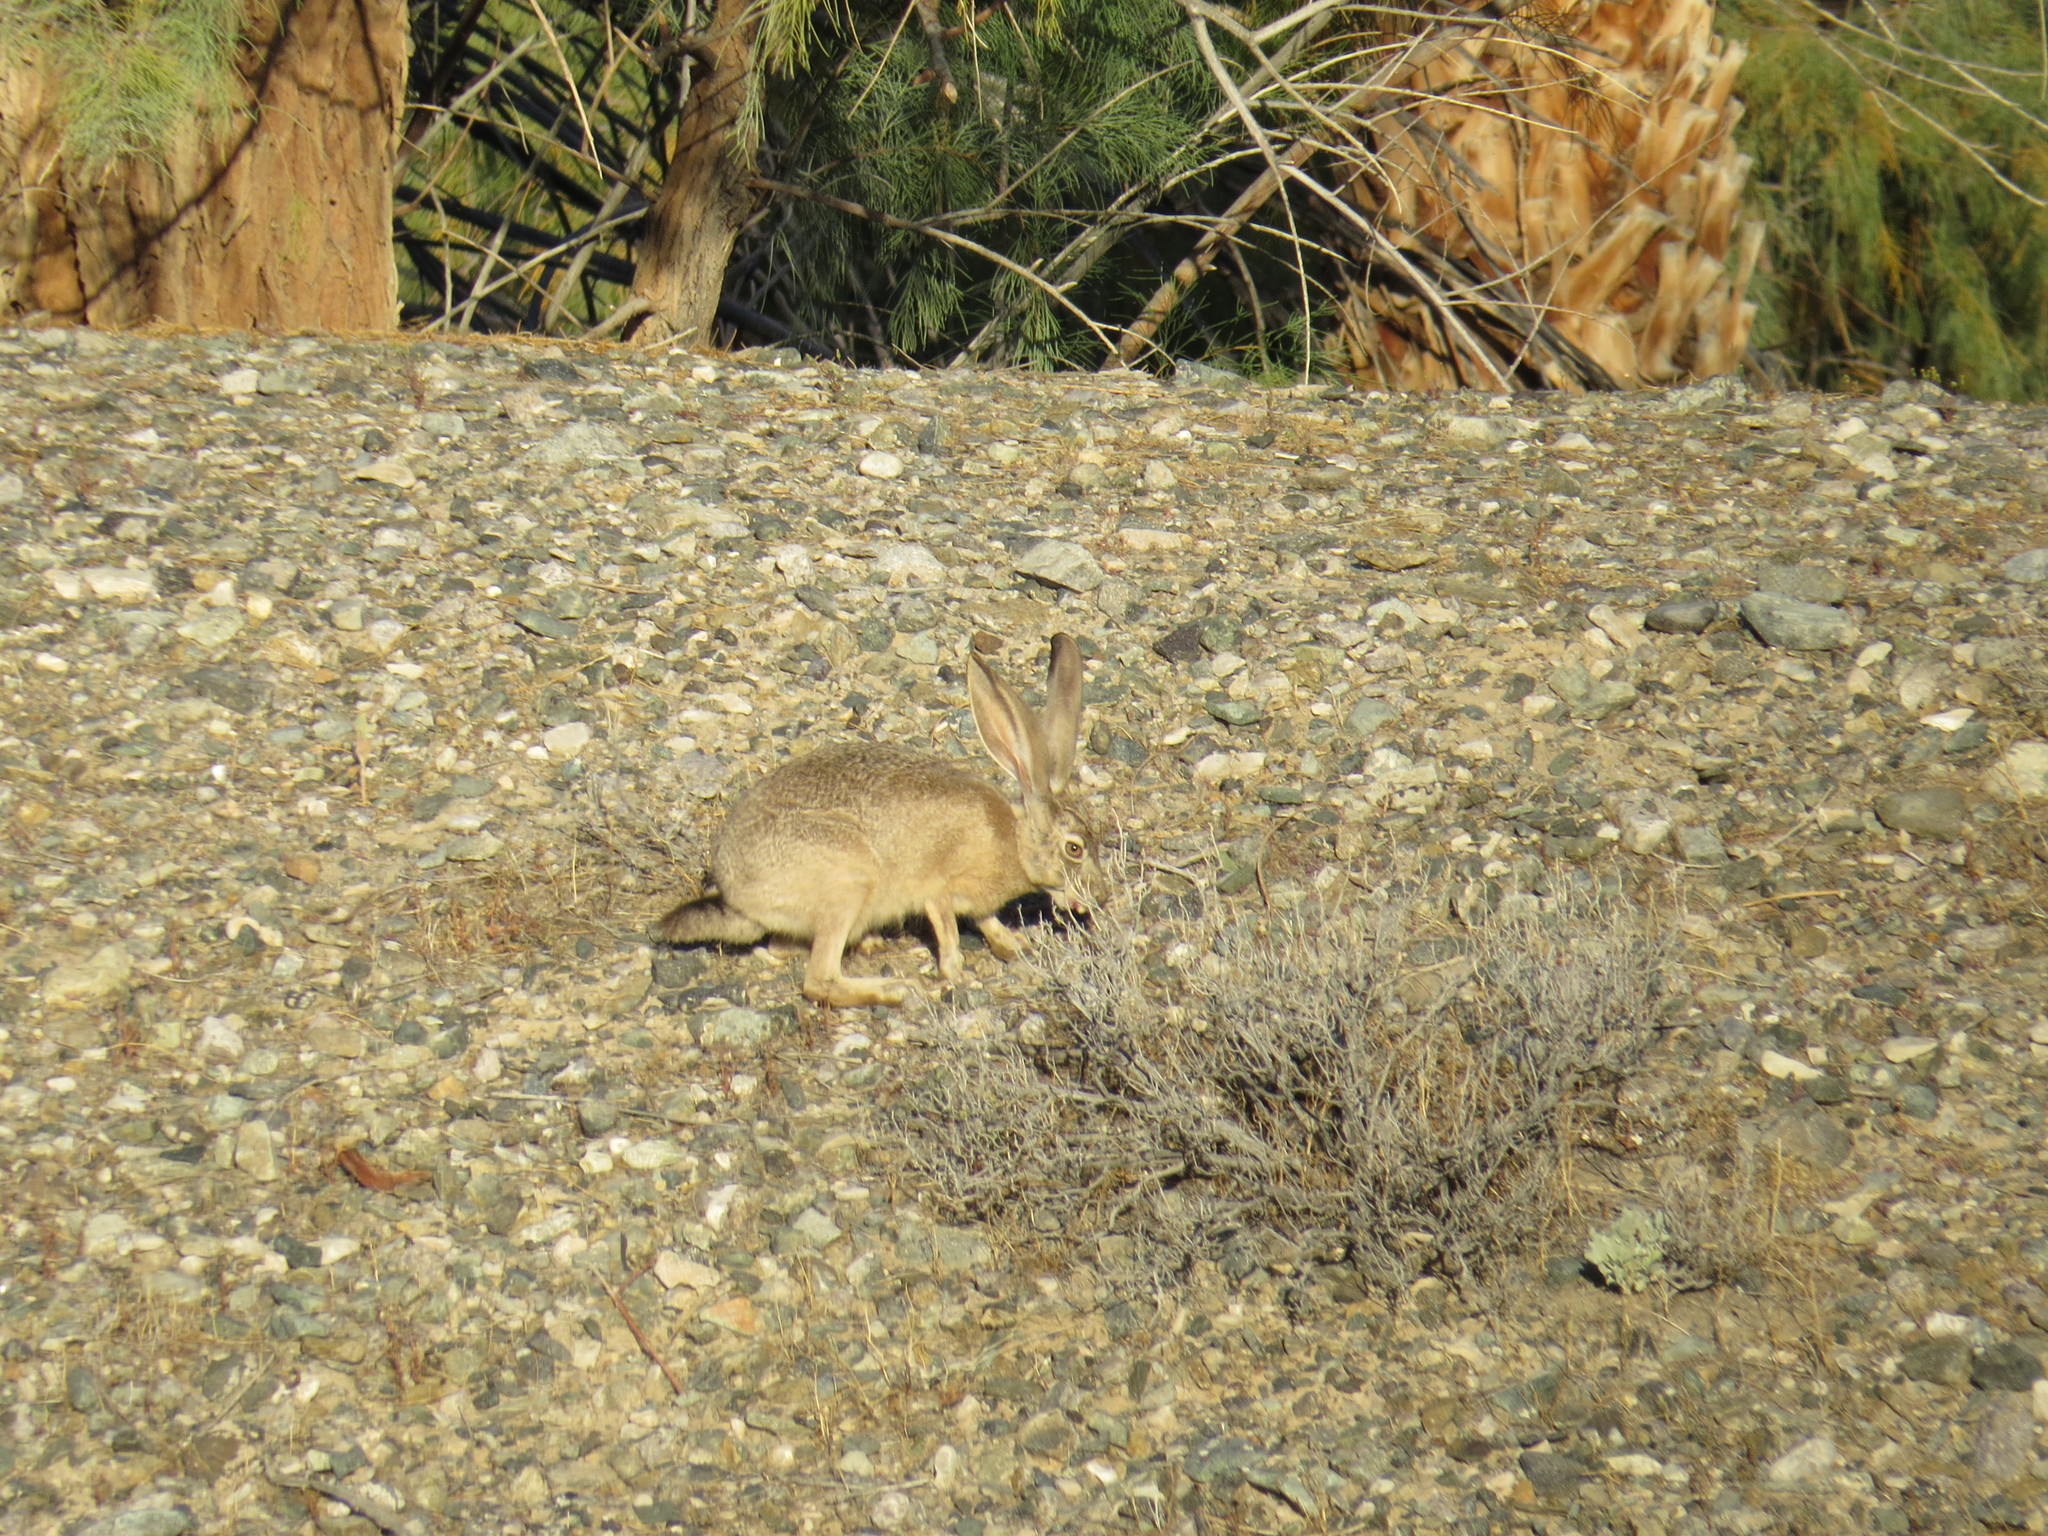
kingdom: Animalia
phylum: Chordata
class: Mammalia
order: Lagomorpha
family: Leporidae
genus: Lepus
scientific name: Lepus californicus
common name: Black-tailed jackrabbit
